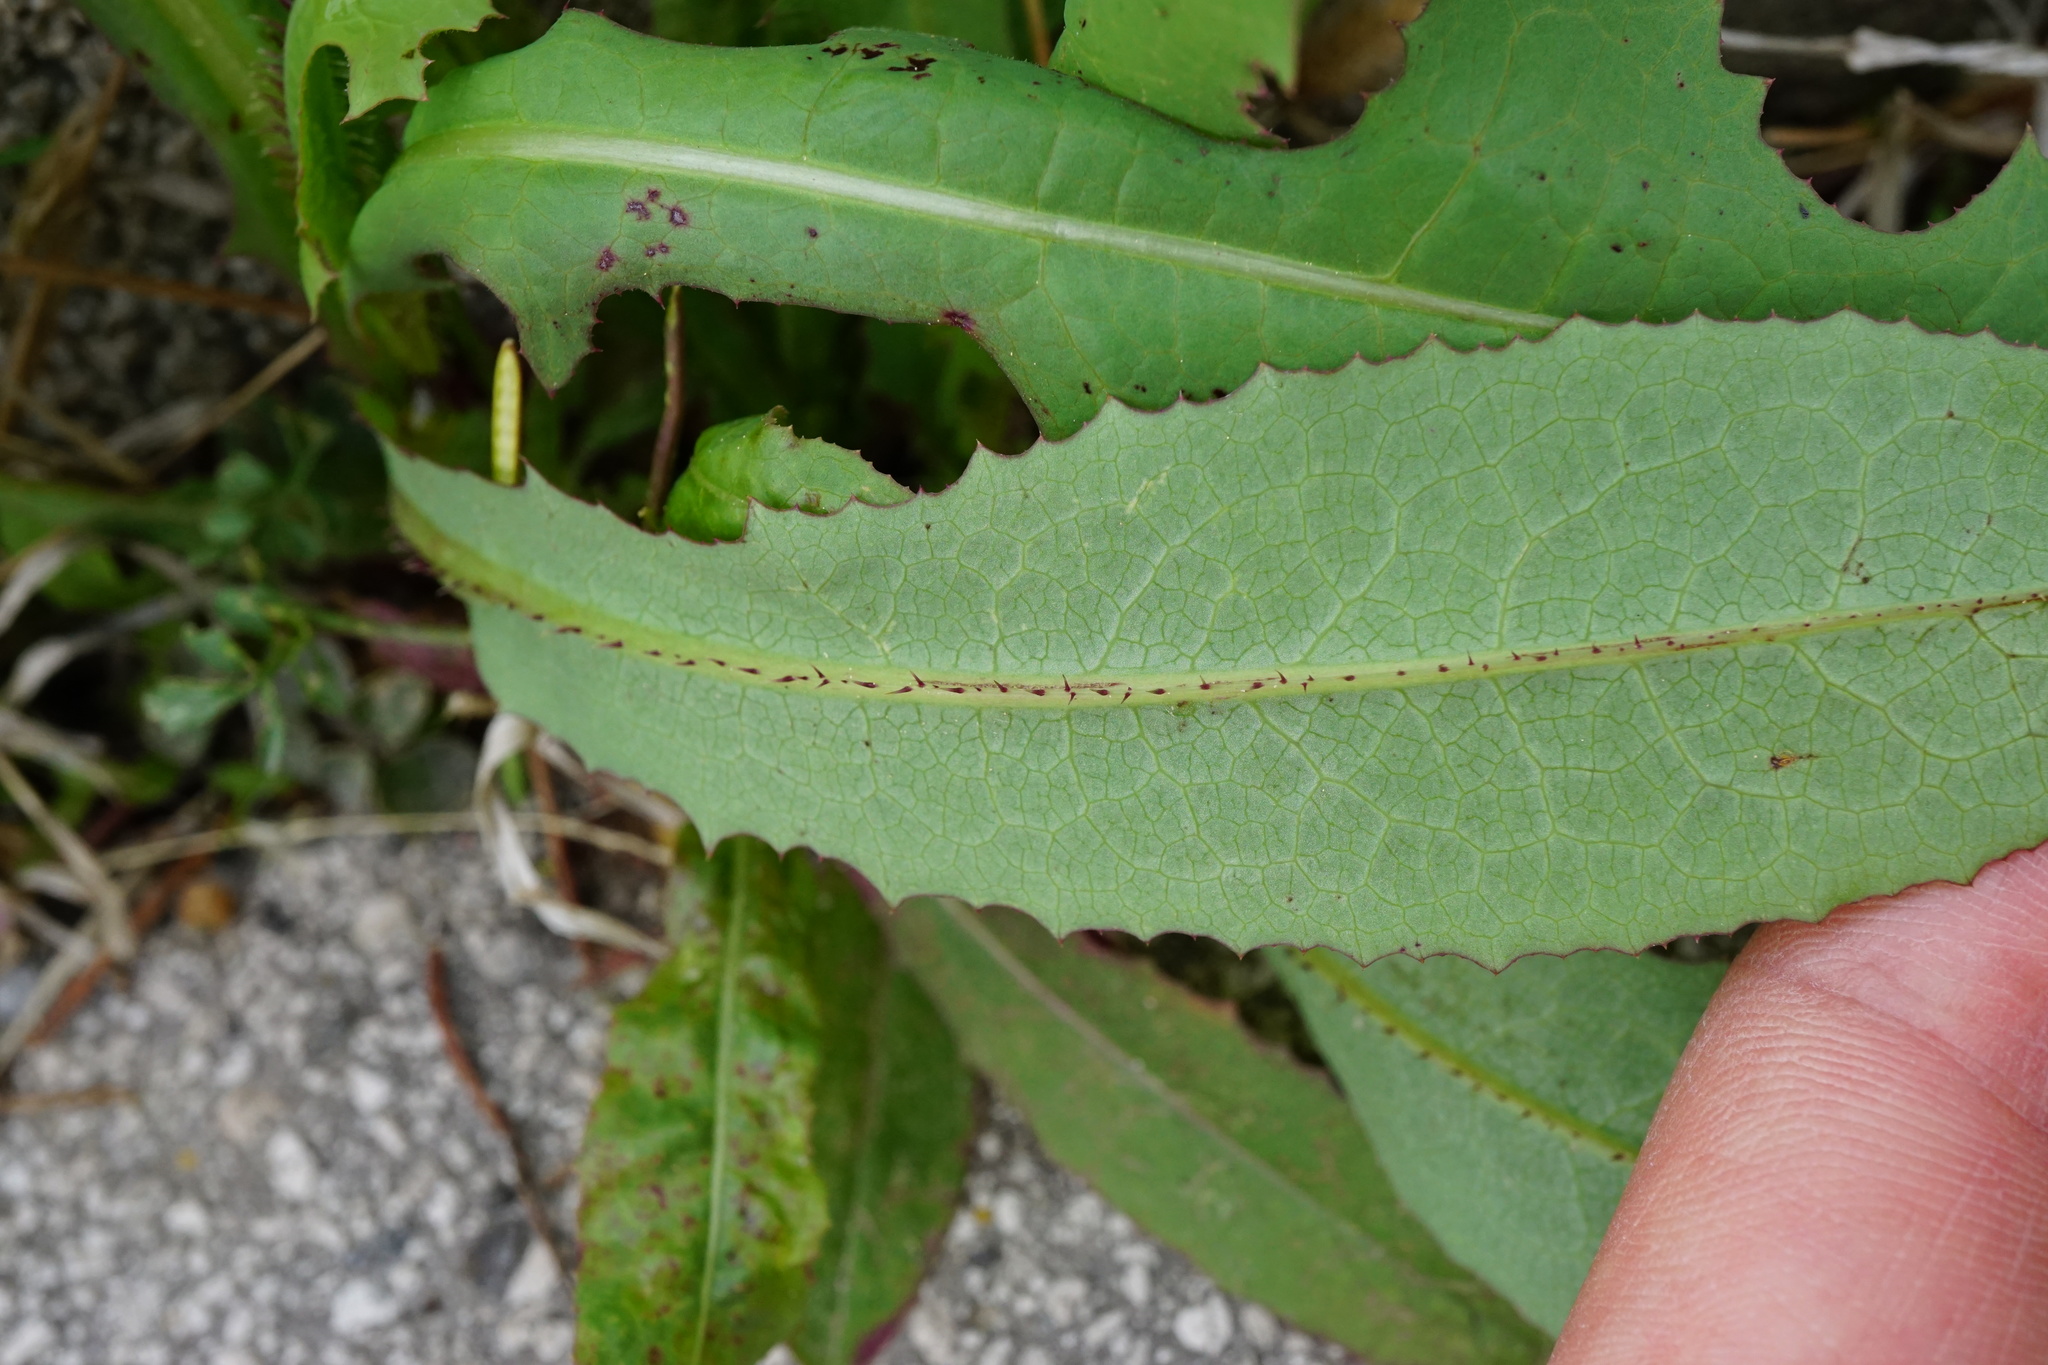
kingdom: Plantae
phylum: Tracheophyta
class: Magnoliopsida
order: Asterales
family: Asteraceae
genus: Lactuca
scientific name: Lactuca serriola
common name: Prickly lettuce
